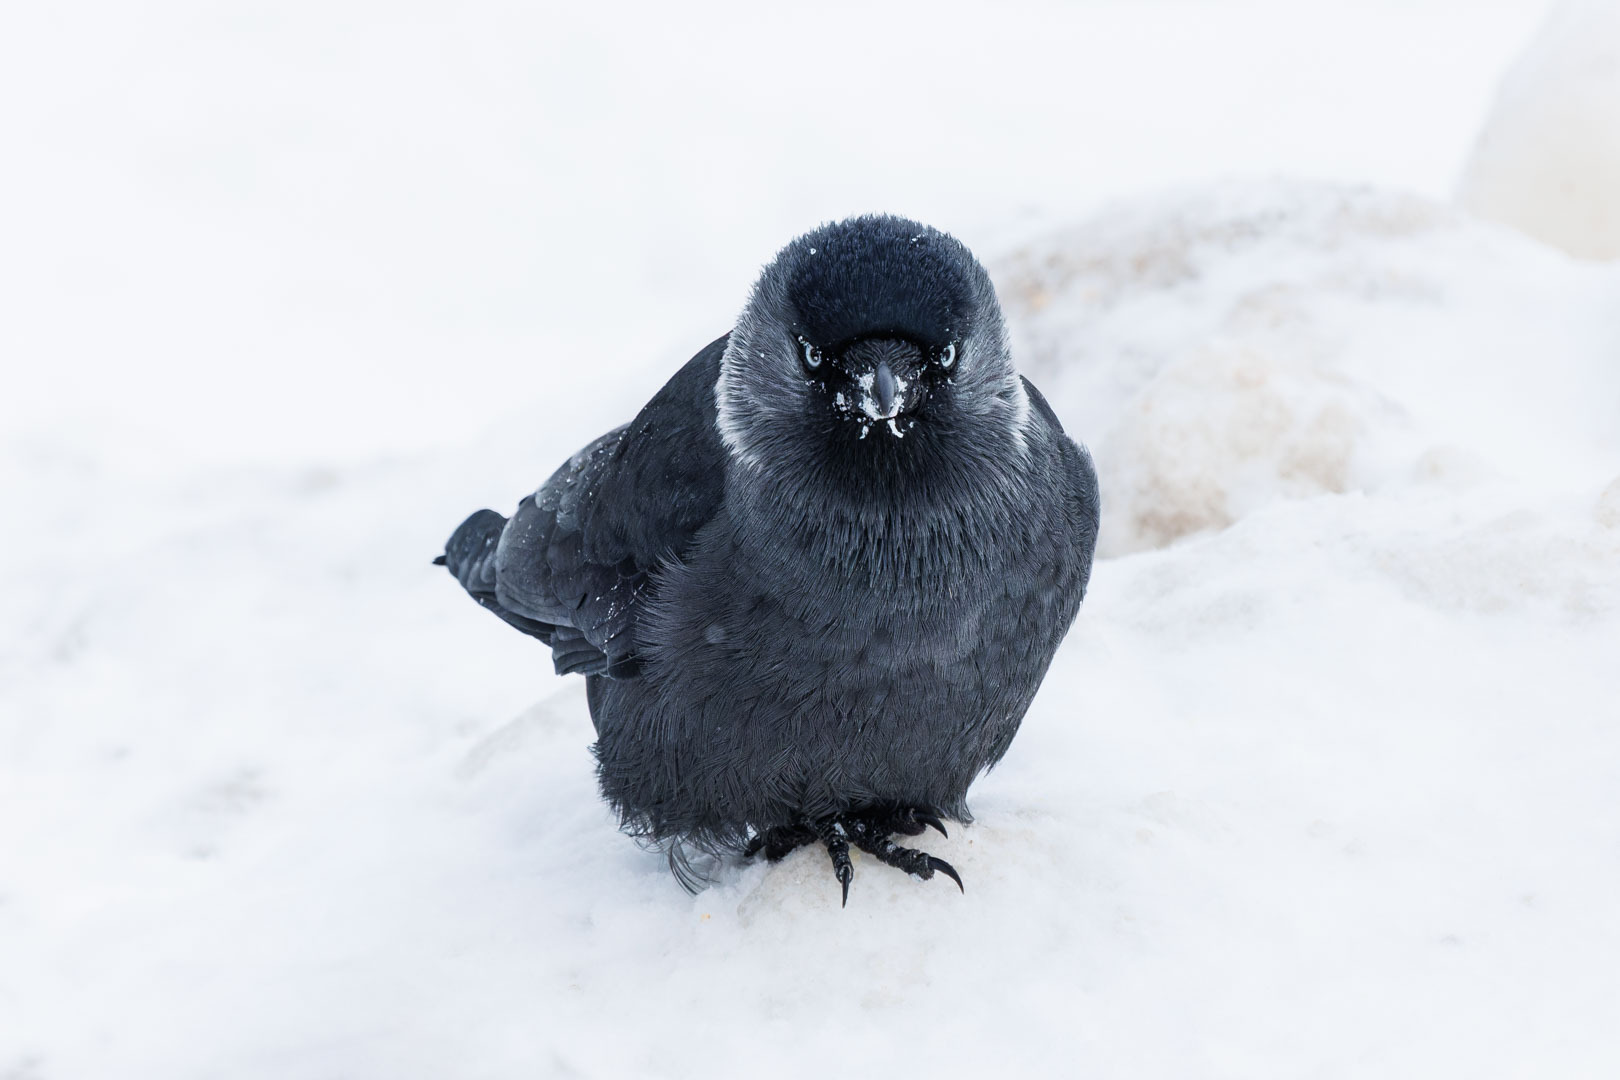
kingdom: Animalia
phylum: Chordata
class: Aves
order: Passeriformes
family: Corvidae
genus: Coloeus
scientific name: Coloeus monedula
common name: Western jackdaw
